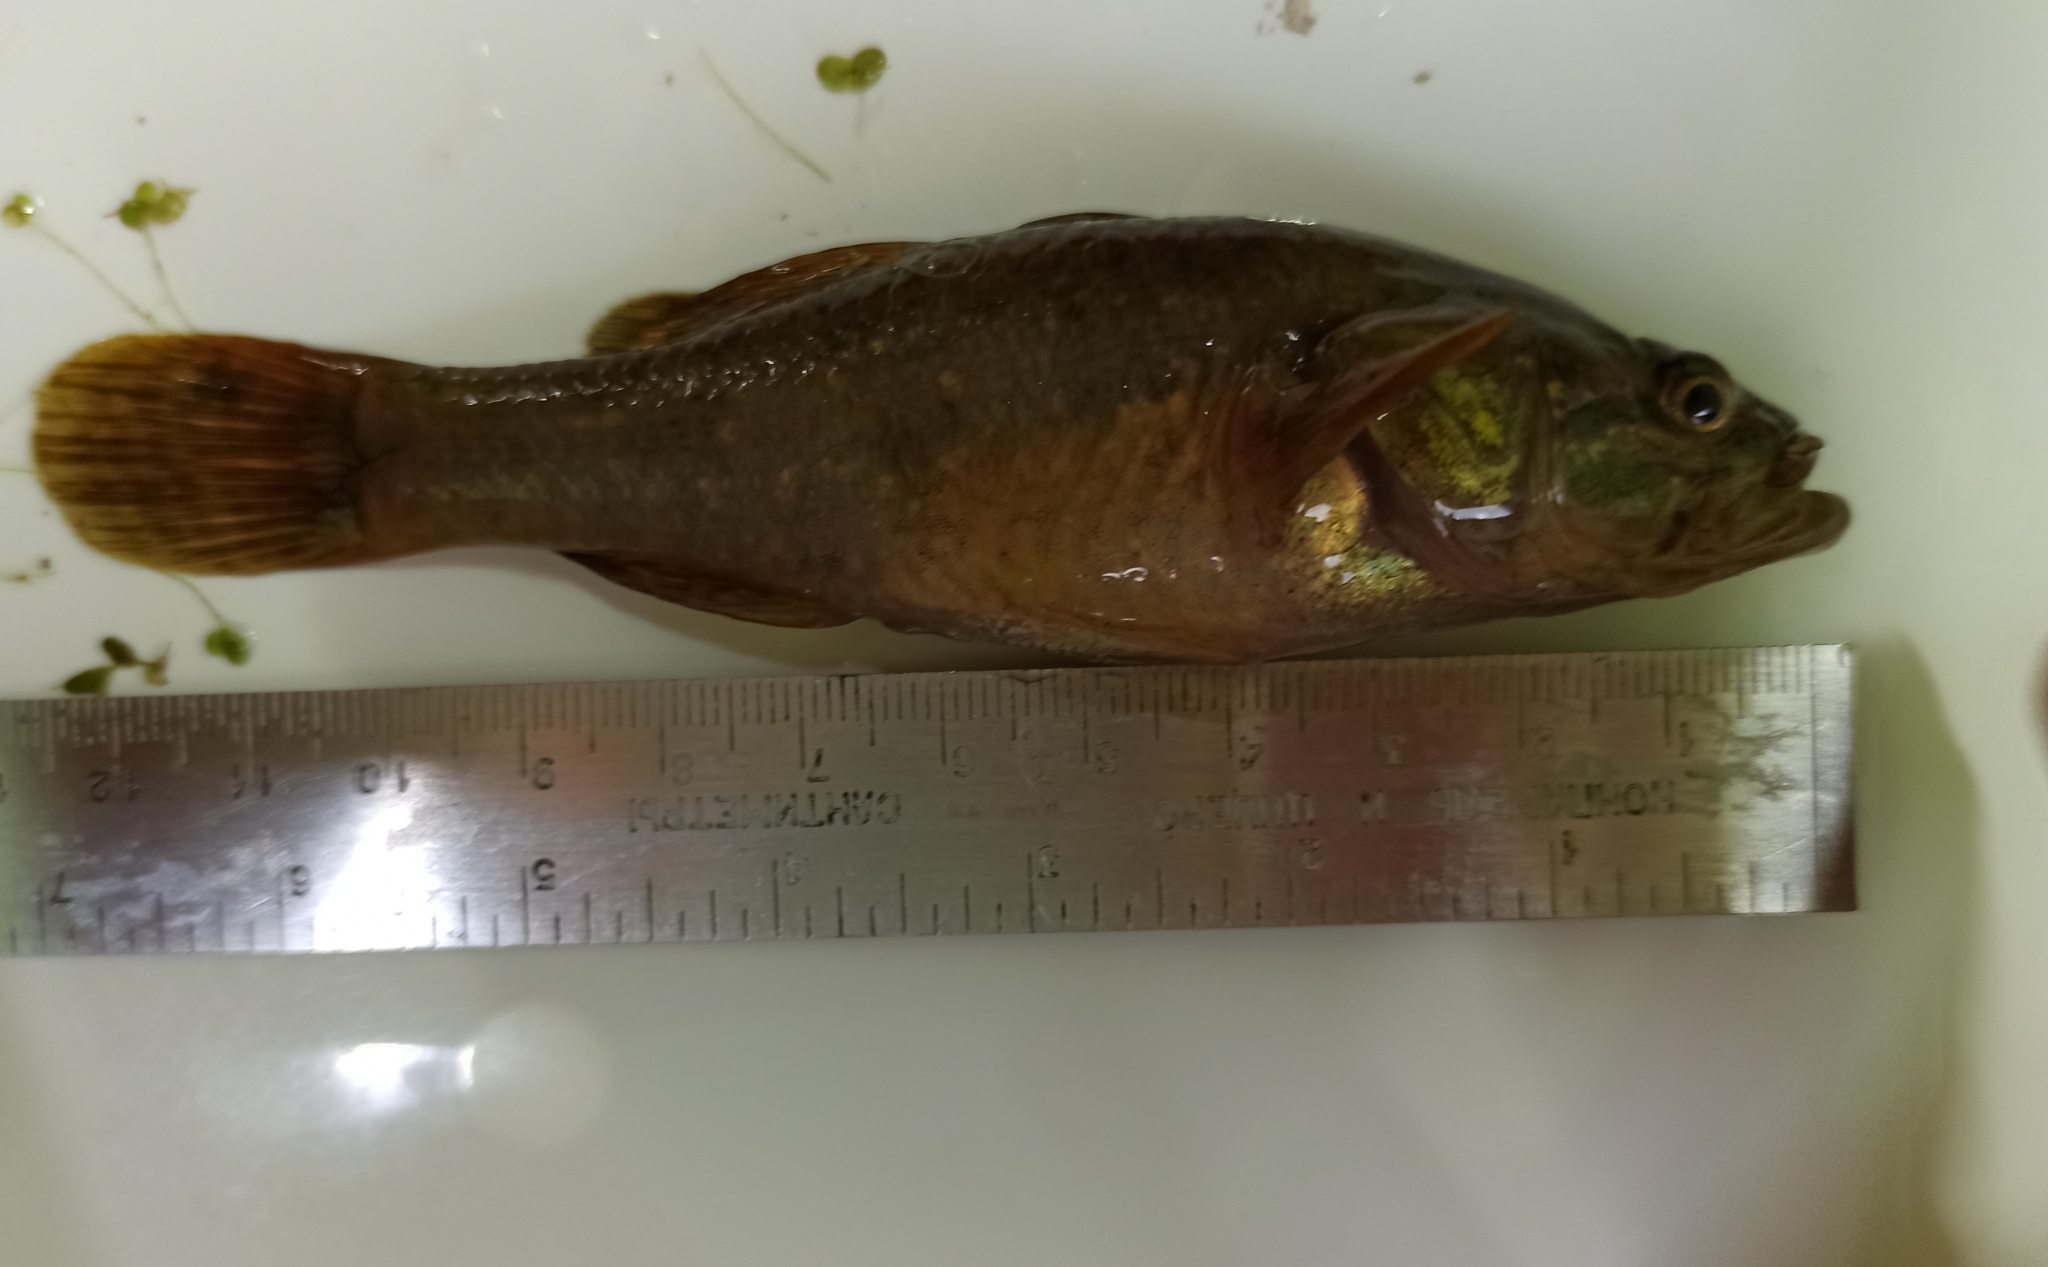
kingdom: Animalia
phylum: Chordata
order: Perciformes
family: Odontobutidae
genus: Perccottus
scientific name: Perccottus glenii
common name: Amur sleeper
